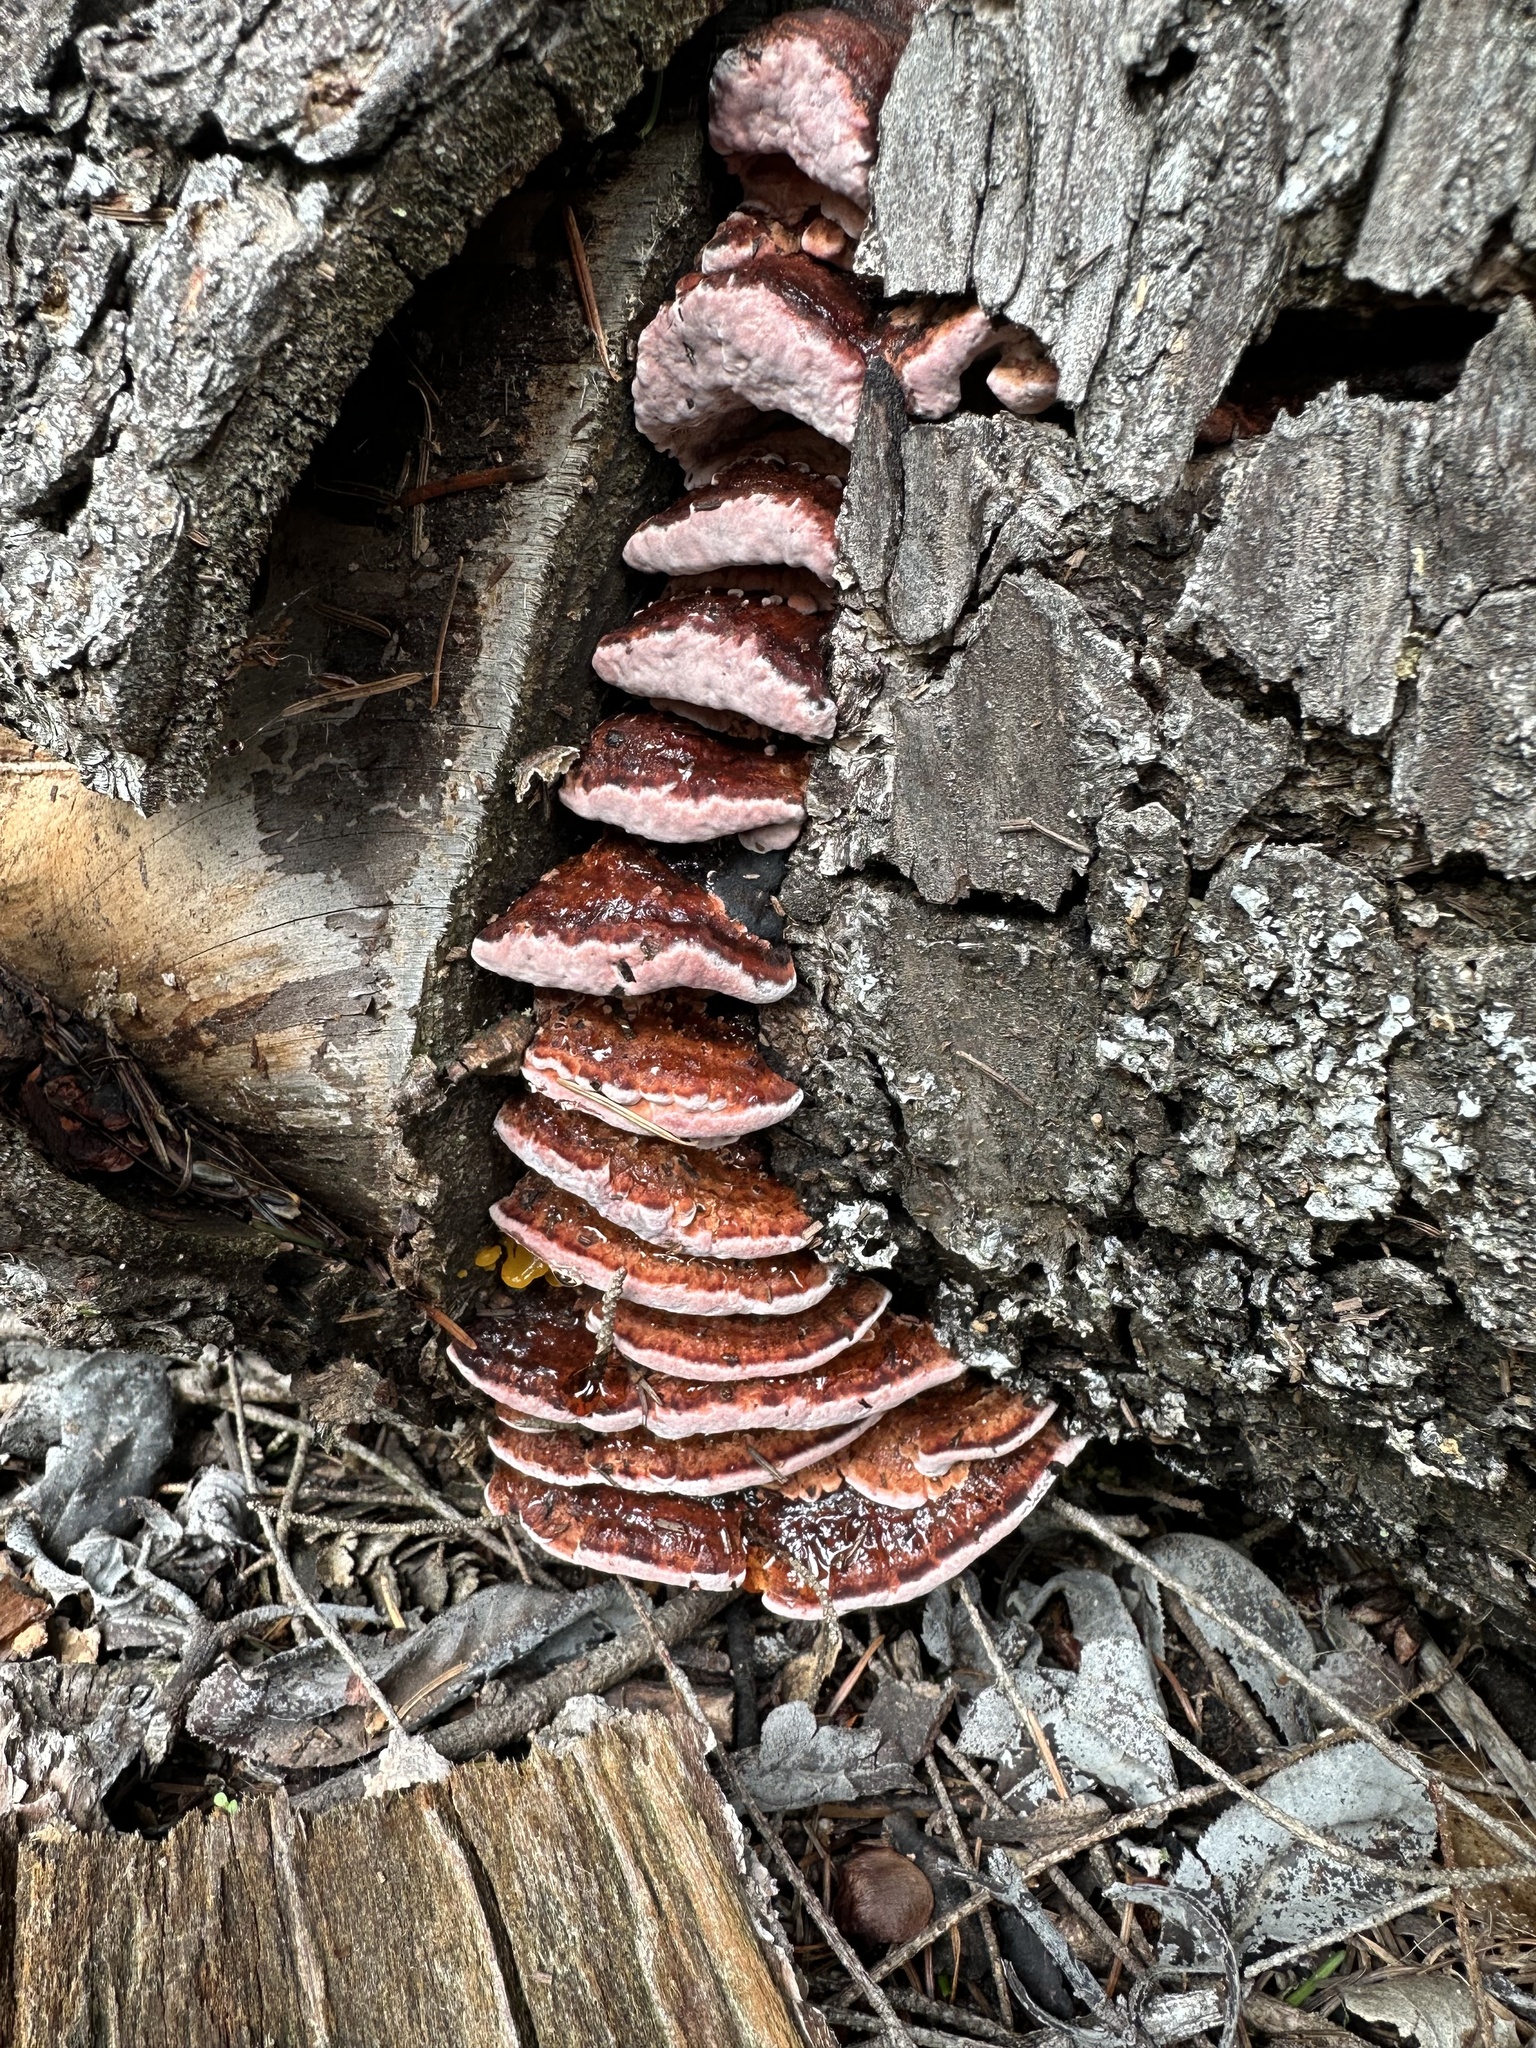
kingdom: Fungi
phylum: Basidiomycota
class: Agaricomycetes
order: Polyporales
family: Fomitopsidaceae
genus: Rhodofomes
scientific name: Rhodofomes cajanderi
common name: Rosy conk
